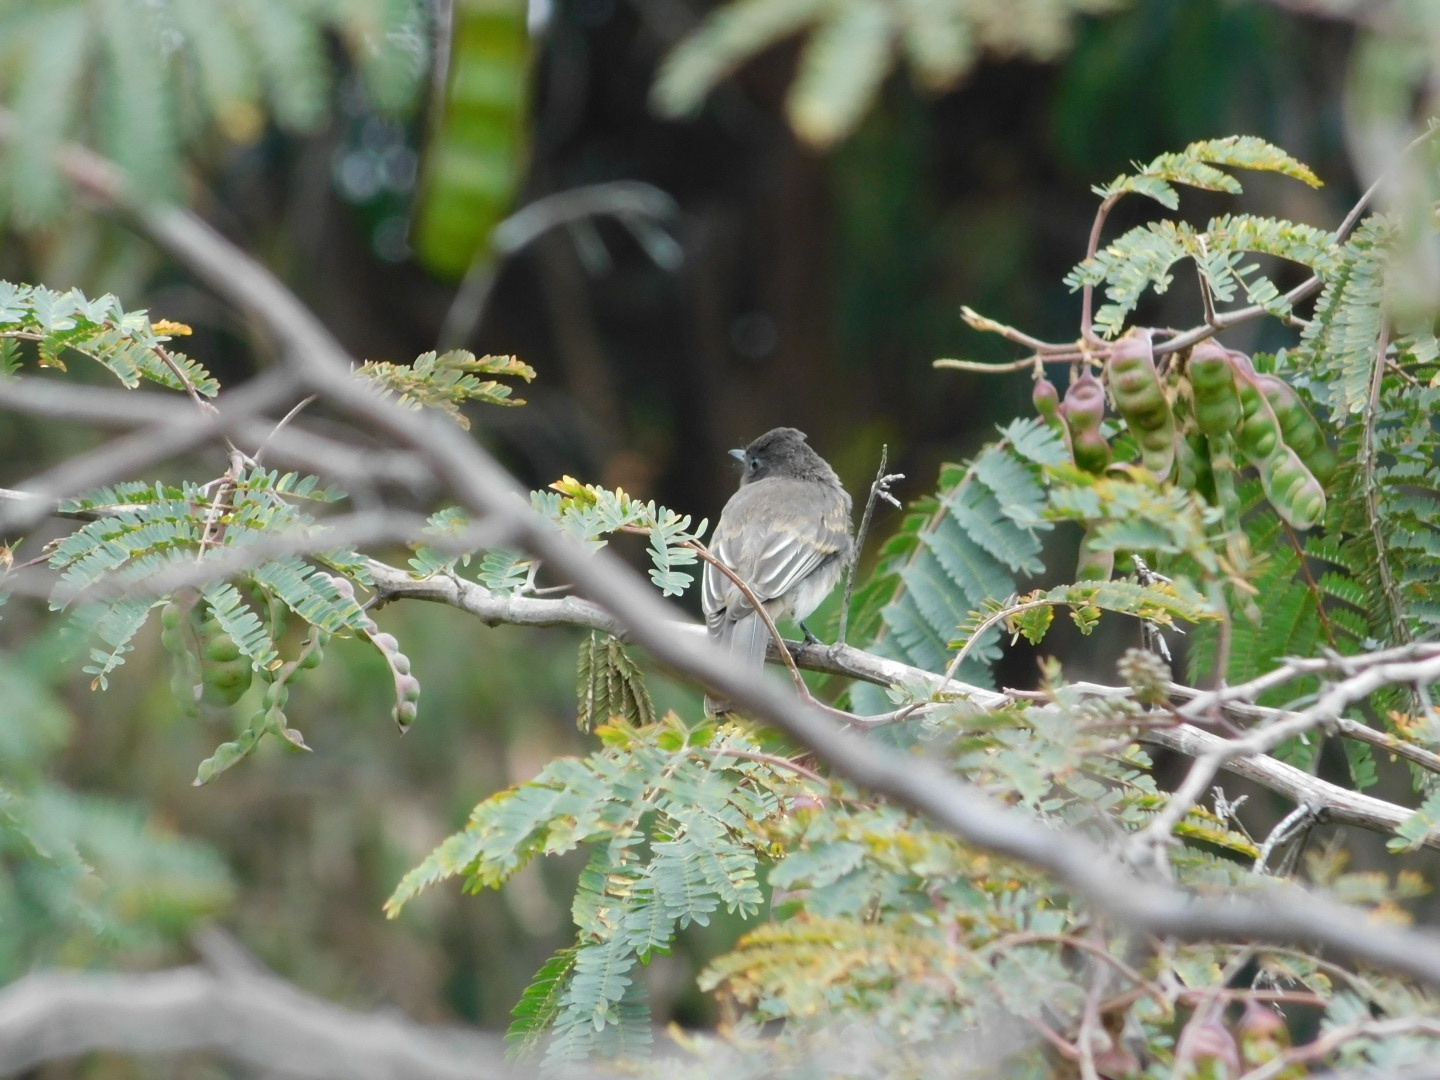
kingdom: Animalia
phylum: Chordata
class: Aves
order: Passeriformes
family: Tyrannidae
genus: Sayornis
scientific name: Sayornis nigricans
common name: Black phoebe
